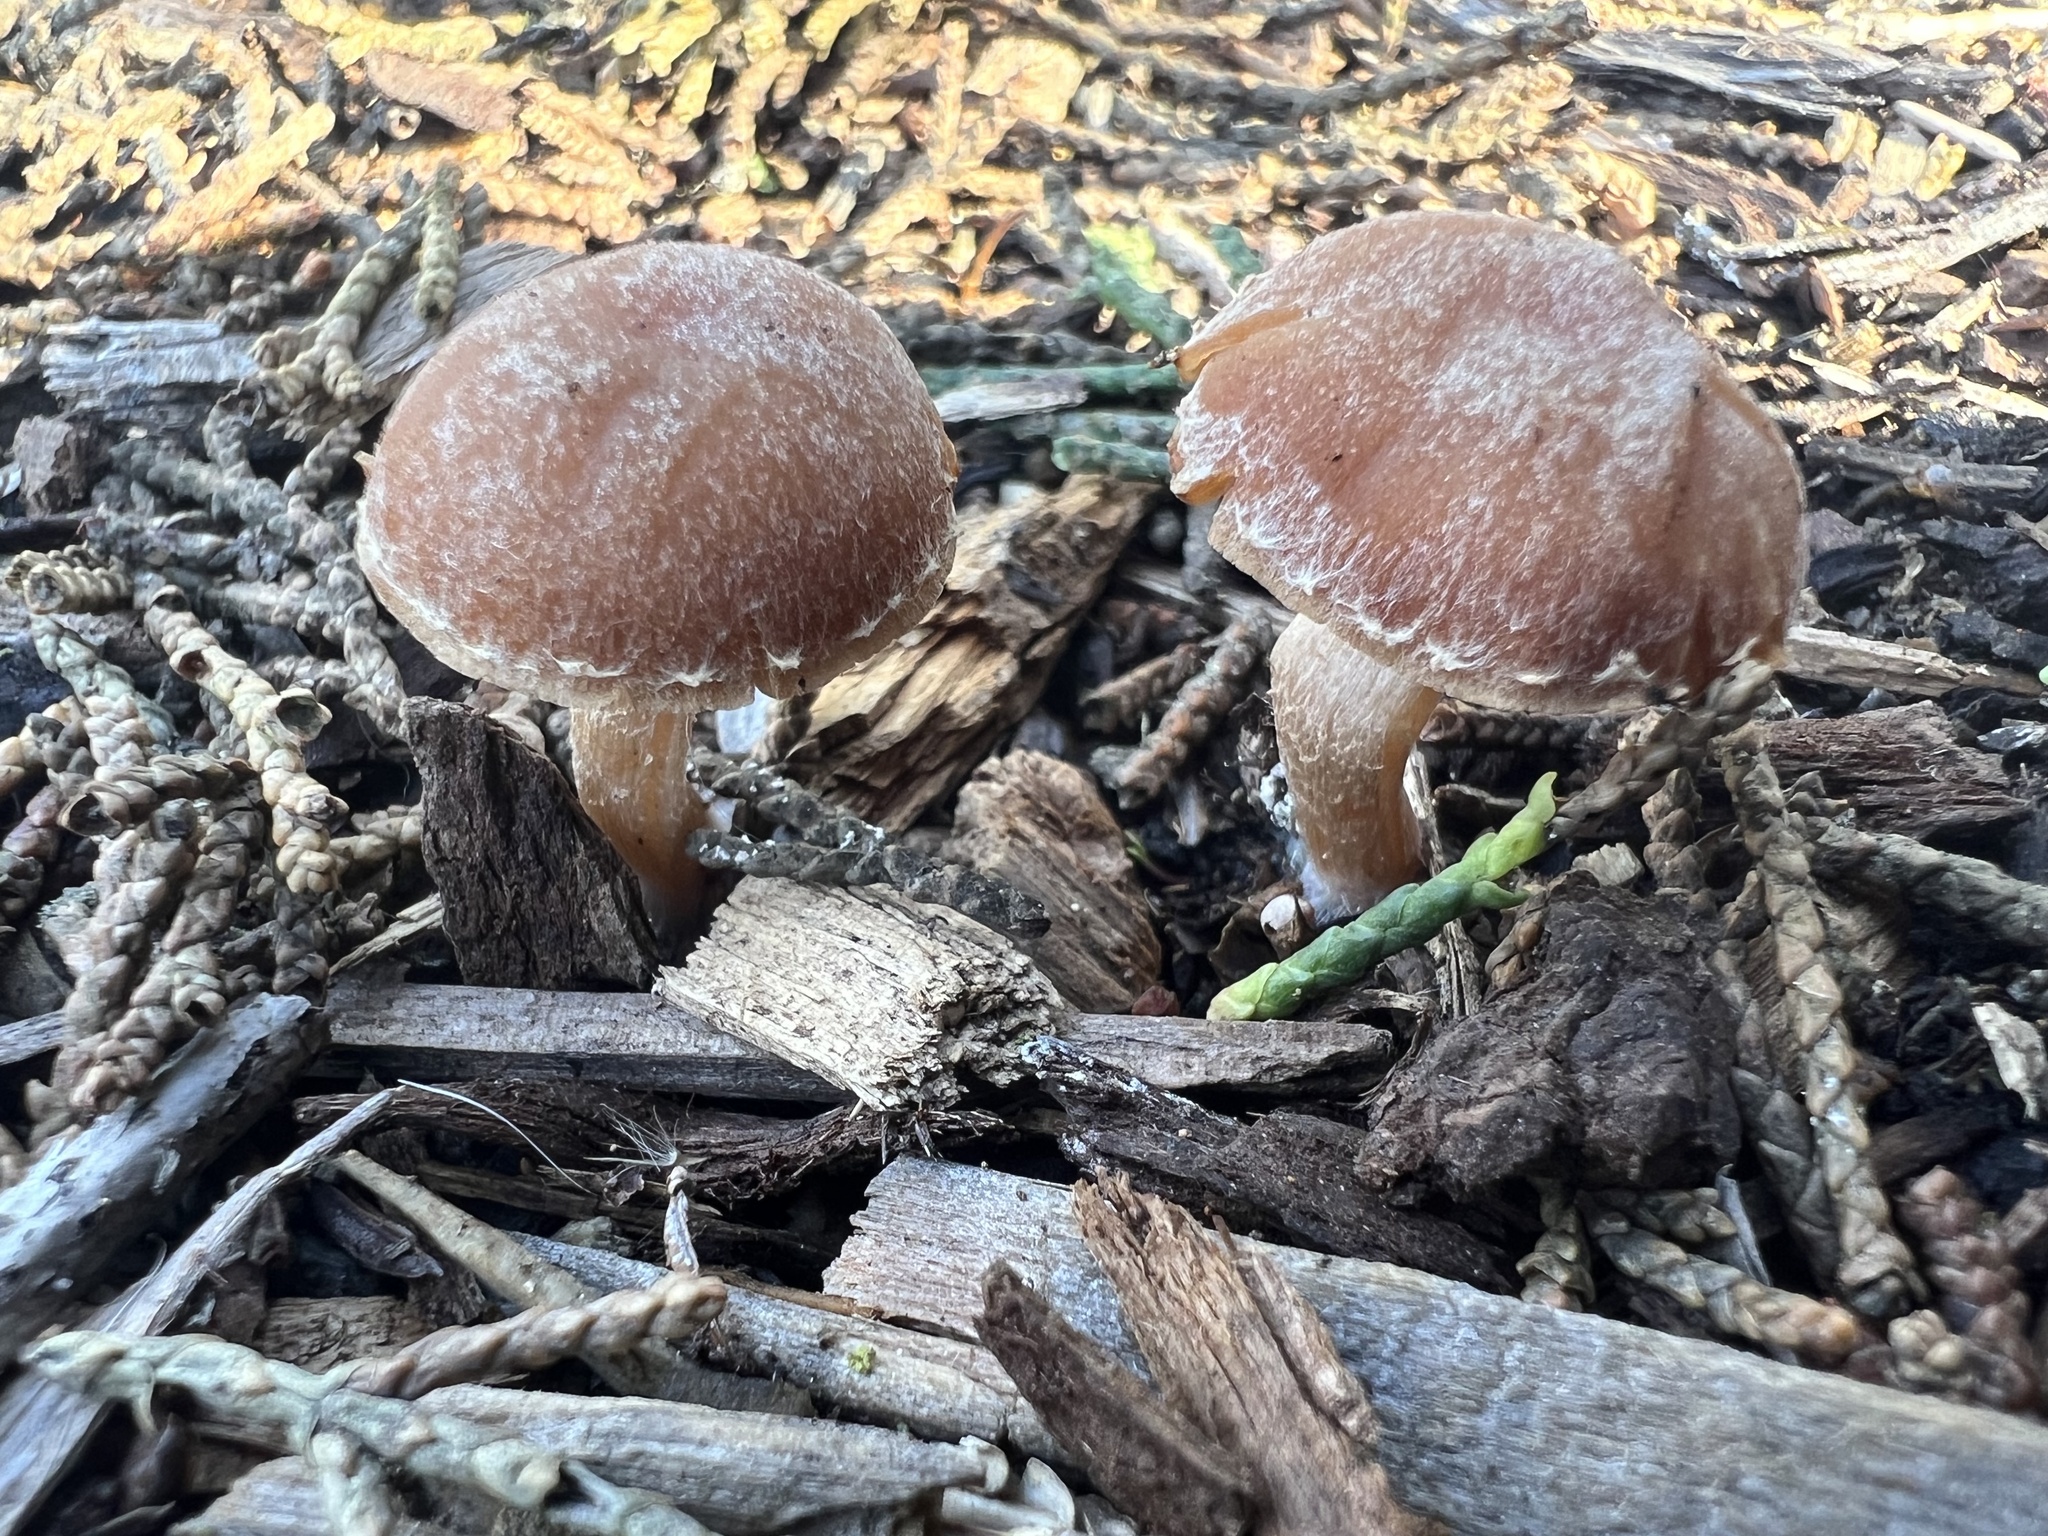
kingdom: Fungi
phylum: Basidiomycota
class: Agaricomycetes
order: Agaricales
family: Tubariaceae
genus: Tubaria
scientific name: Tubaria furfuracea
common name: Scurfy twiglet
